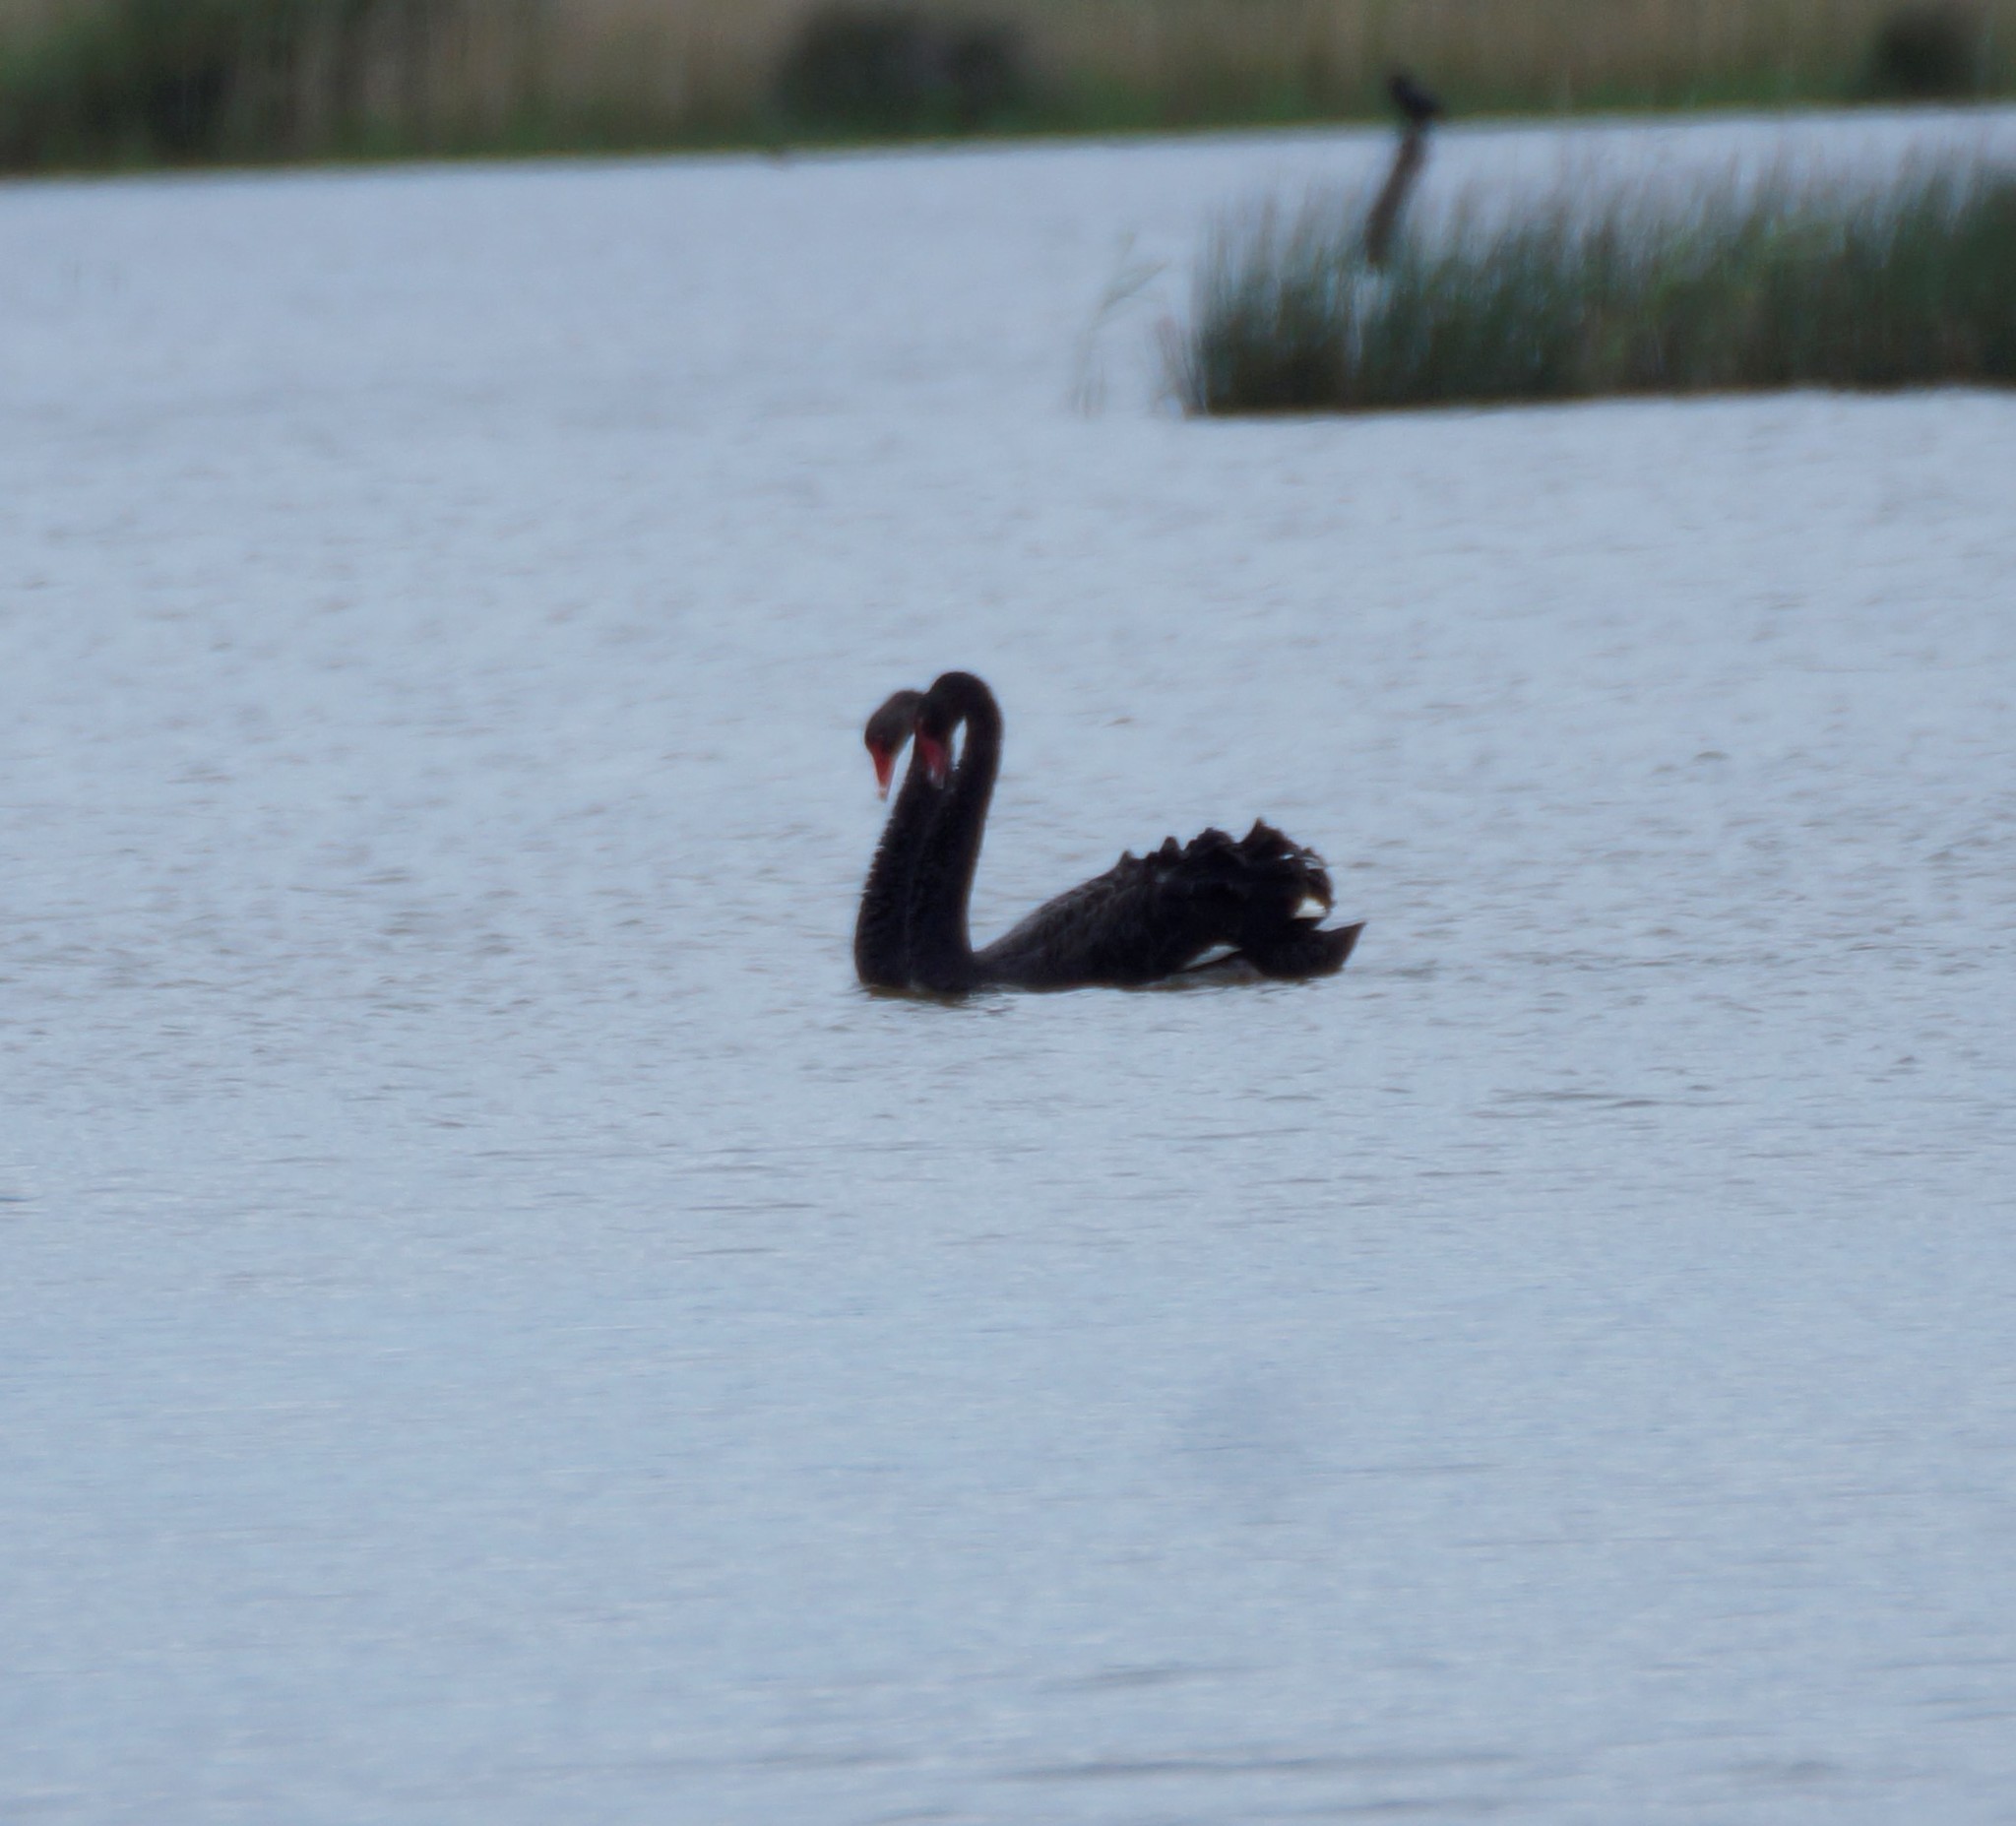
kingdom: Animalia
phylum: Chordata
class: Aves
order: Anseriformes
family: Anatidae
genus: Cygnus
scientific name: Cygnus atratus
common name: Black swan
